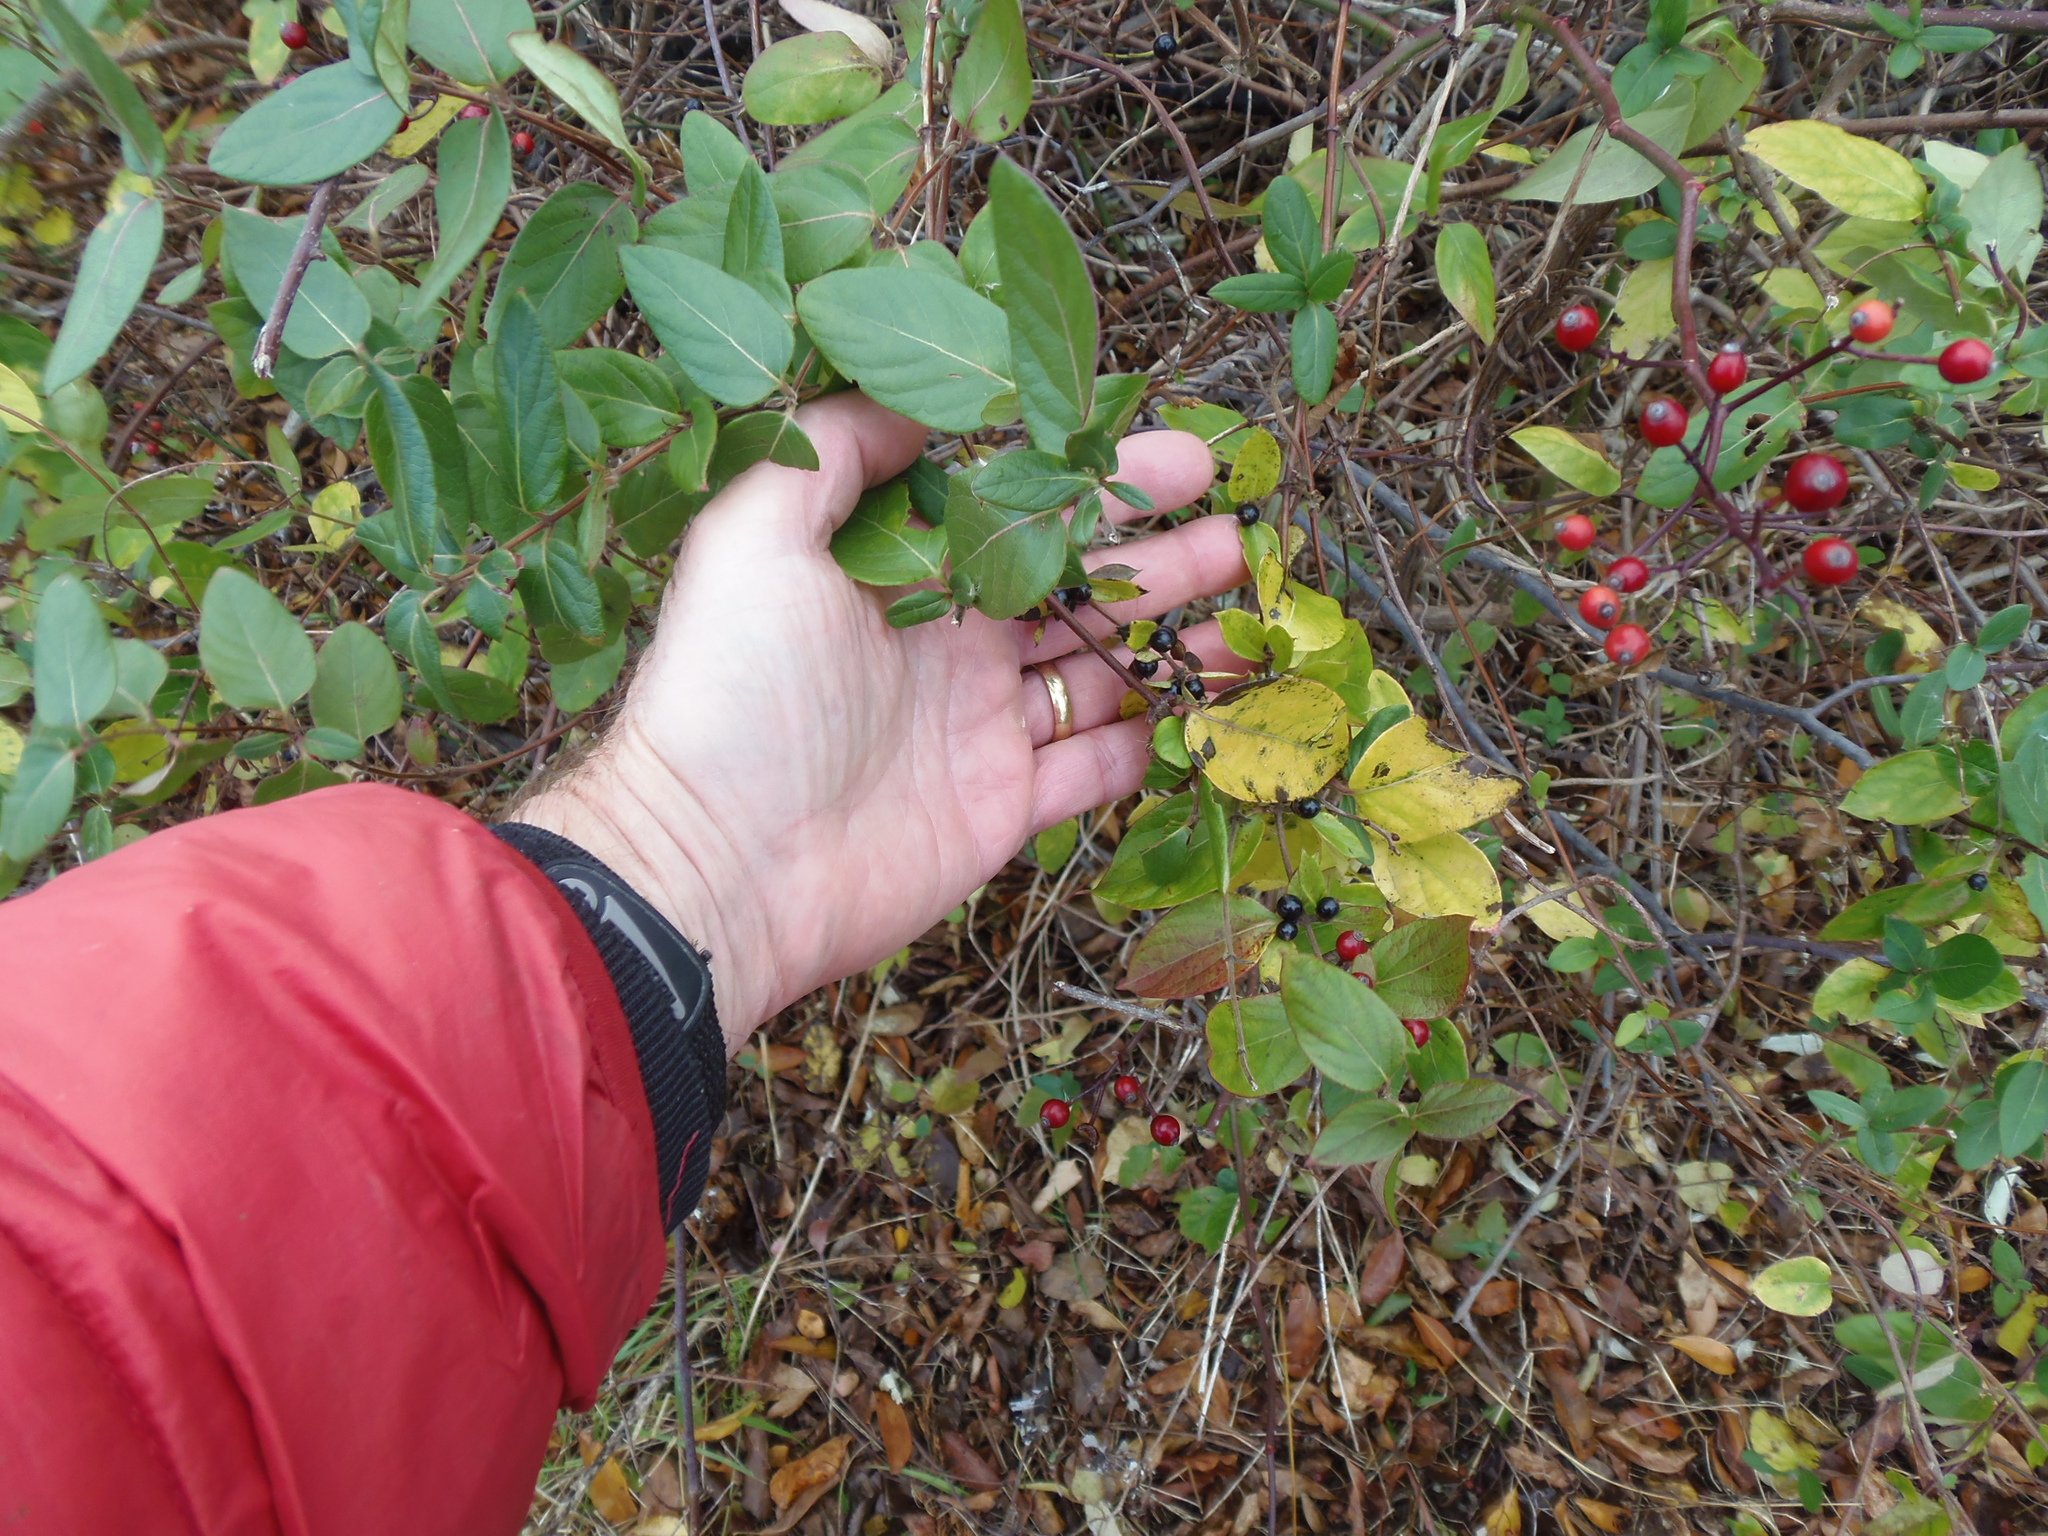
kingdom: Plantae
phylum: Tracheophyta
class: Magnoliopsida
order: Dipsacales
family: Caprifoliaceae
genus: Lonicera
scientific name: Lonicera japonica
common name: Japanese honeysuckle
